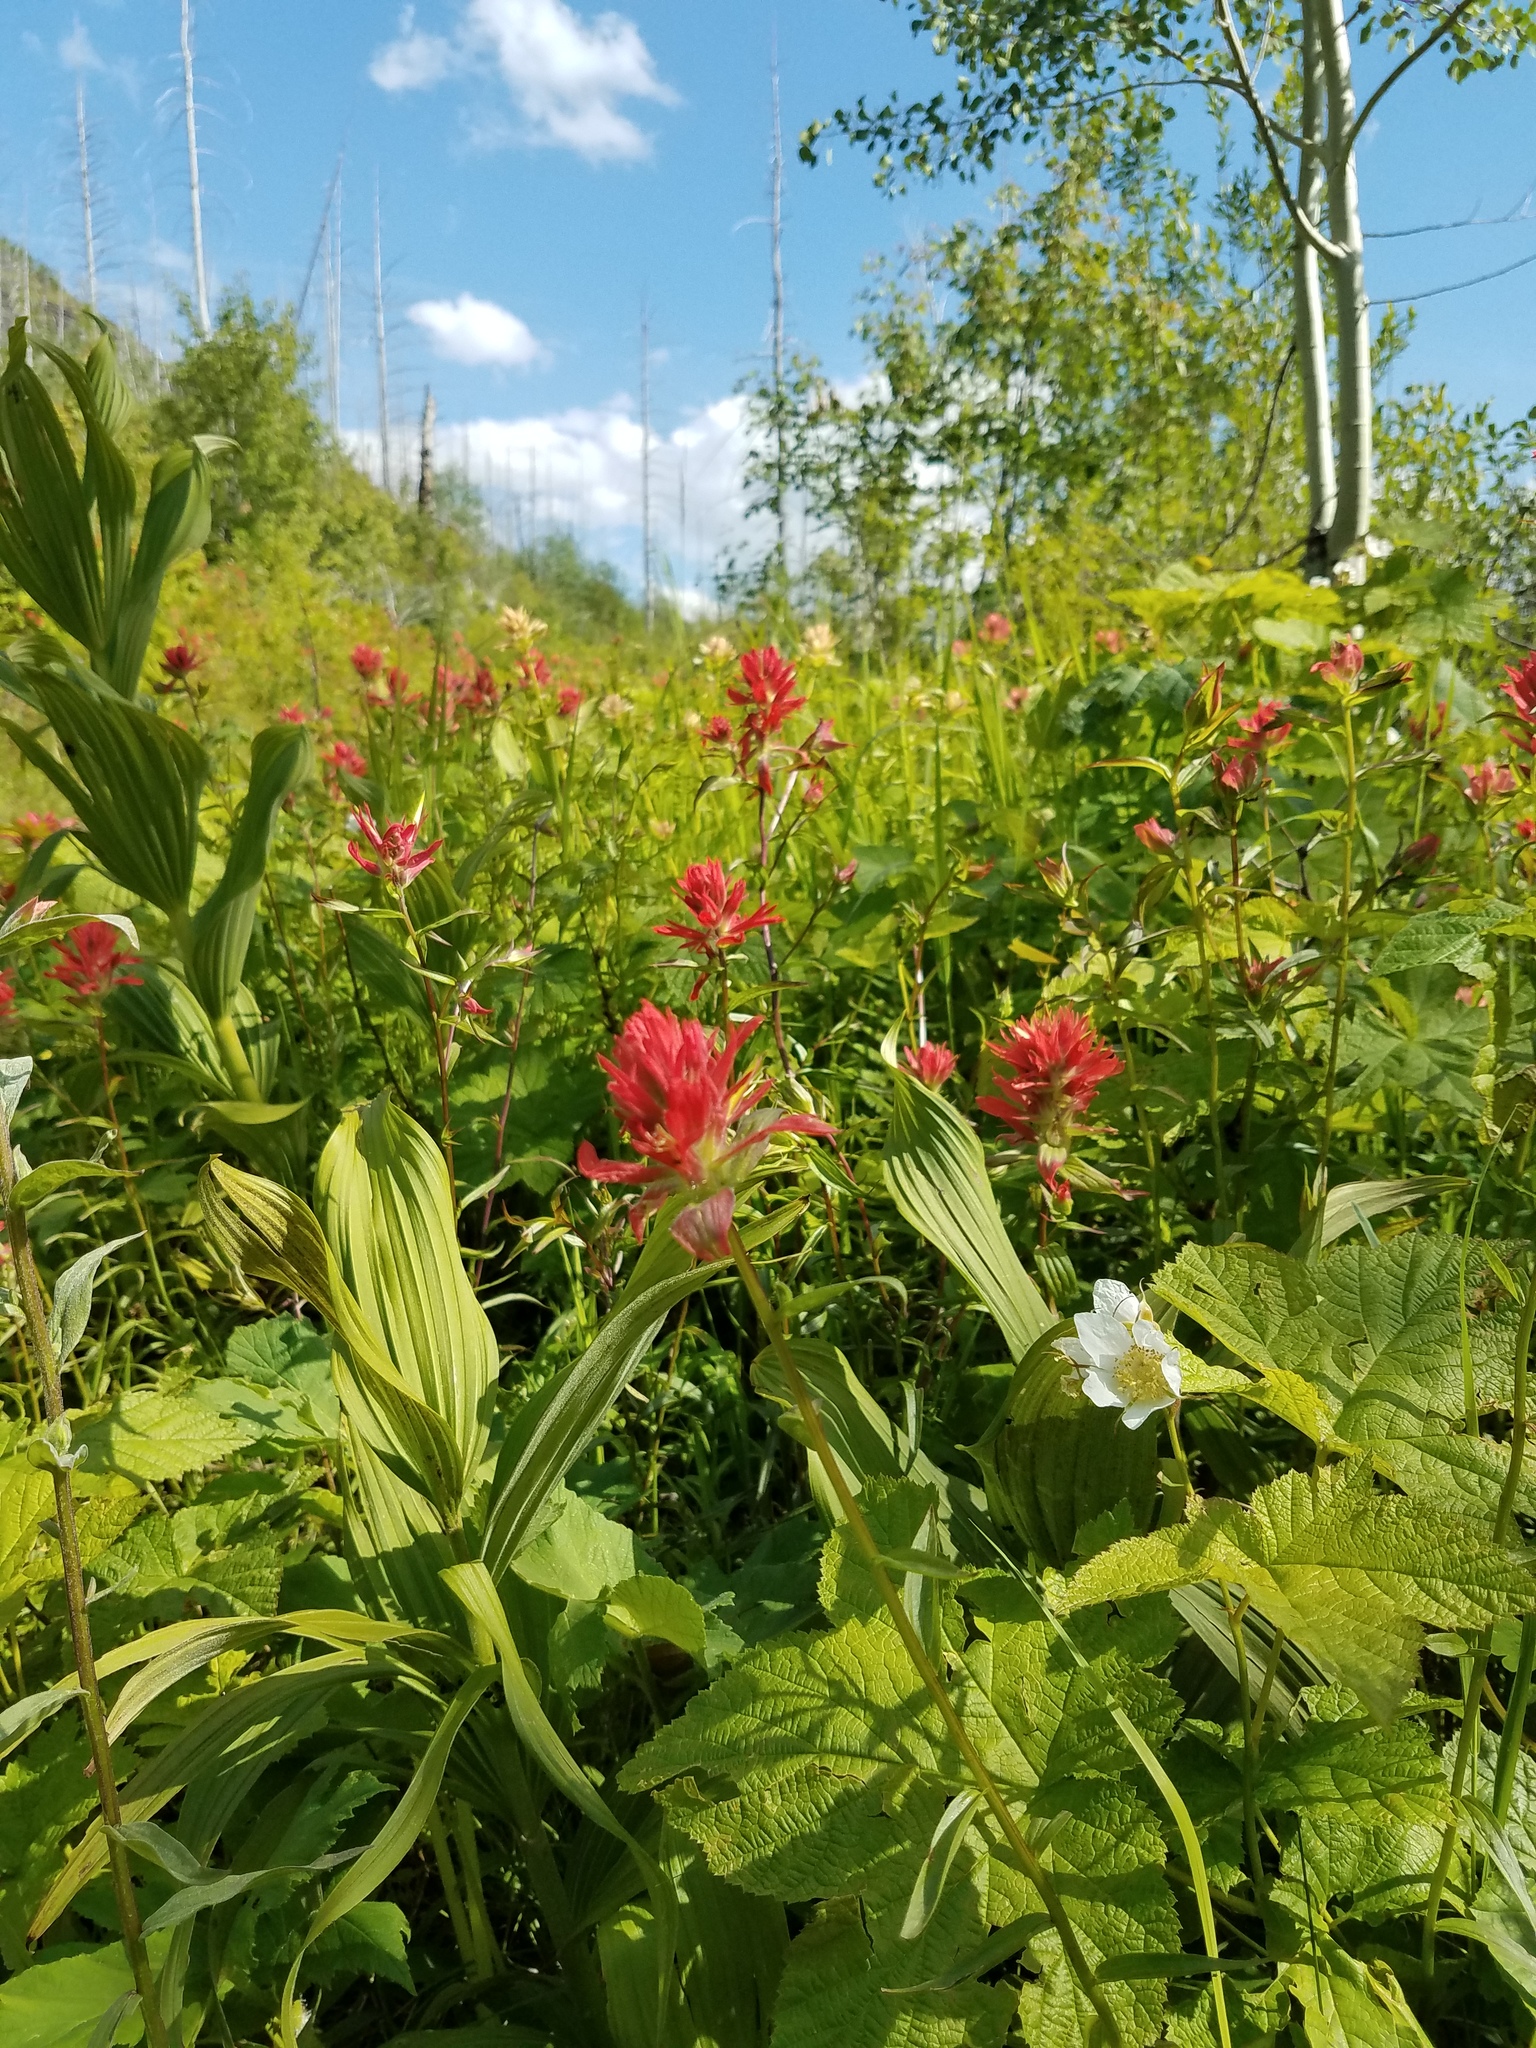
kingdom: Plantae
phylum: Tracheophyta
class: Magnoliopsida
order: Lamiales
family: Orobanchaceae
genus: Castilleja
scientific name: Castilleja miniata
